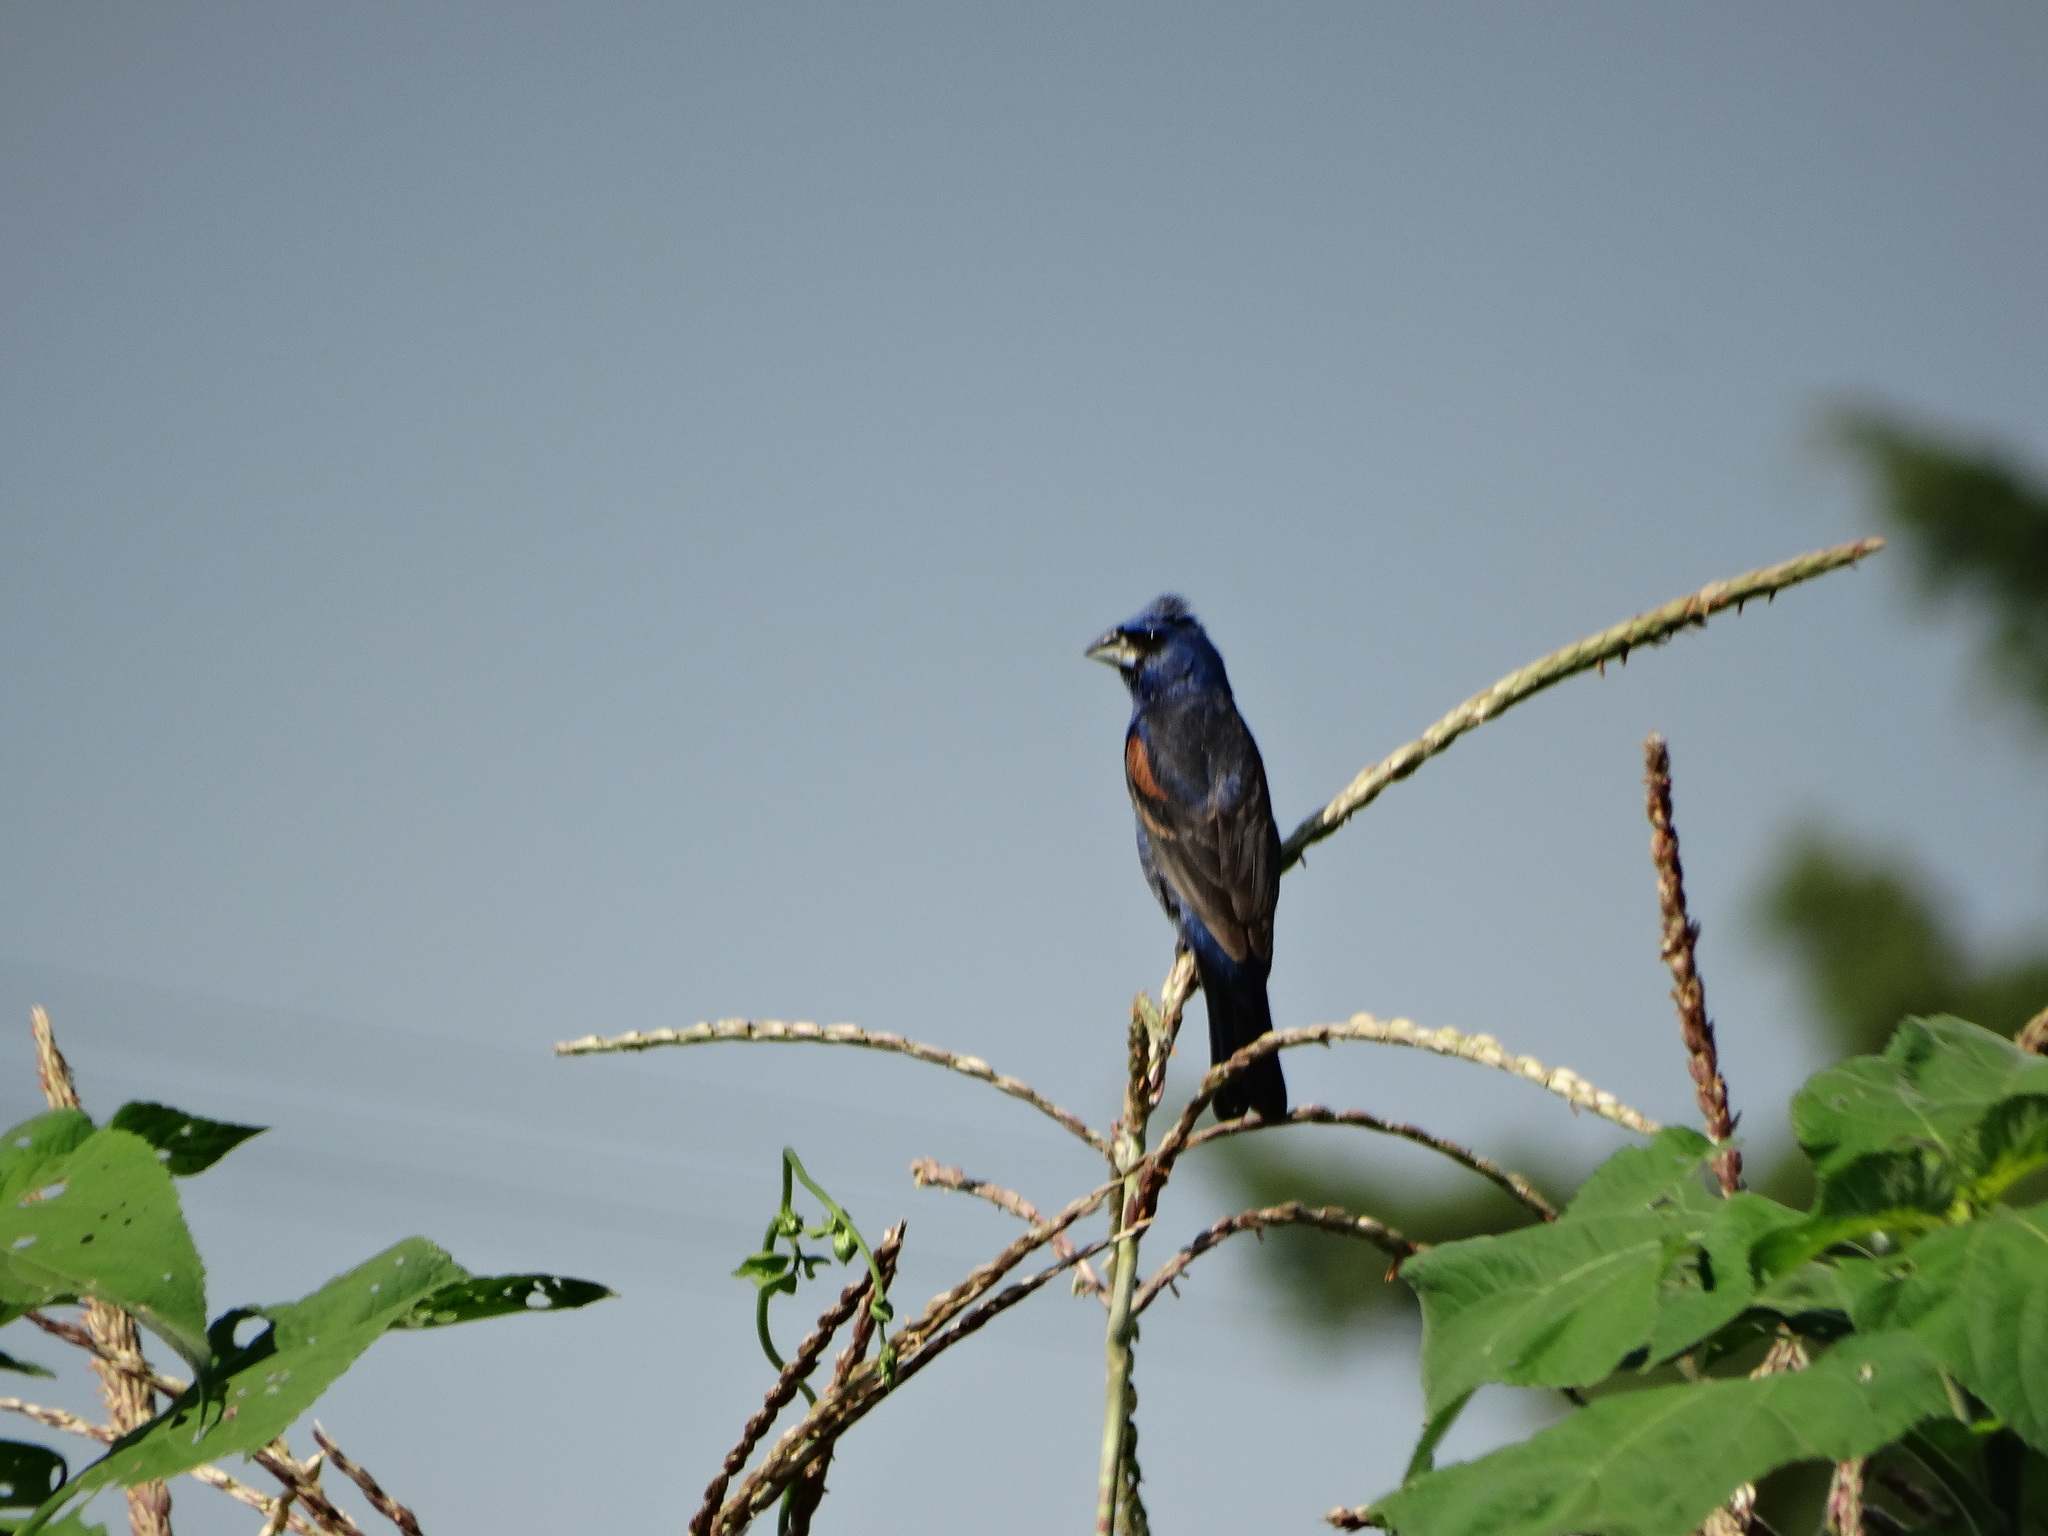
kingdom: Animalia
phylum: Chordata
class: Aves
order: Passeriformes
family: Cardinalidae
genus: Passerina
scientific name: Passerina caerulea
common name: Blue grosbeak
